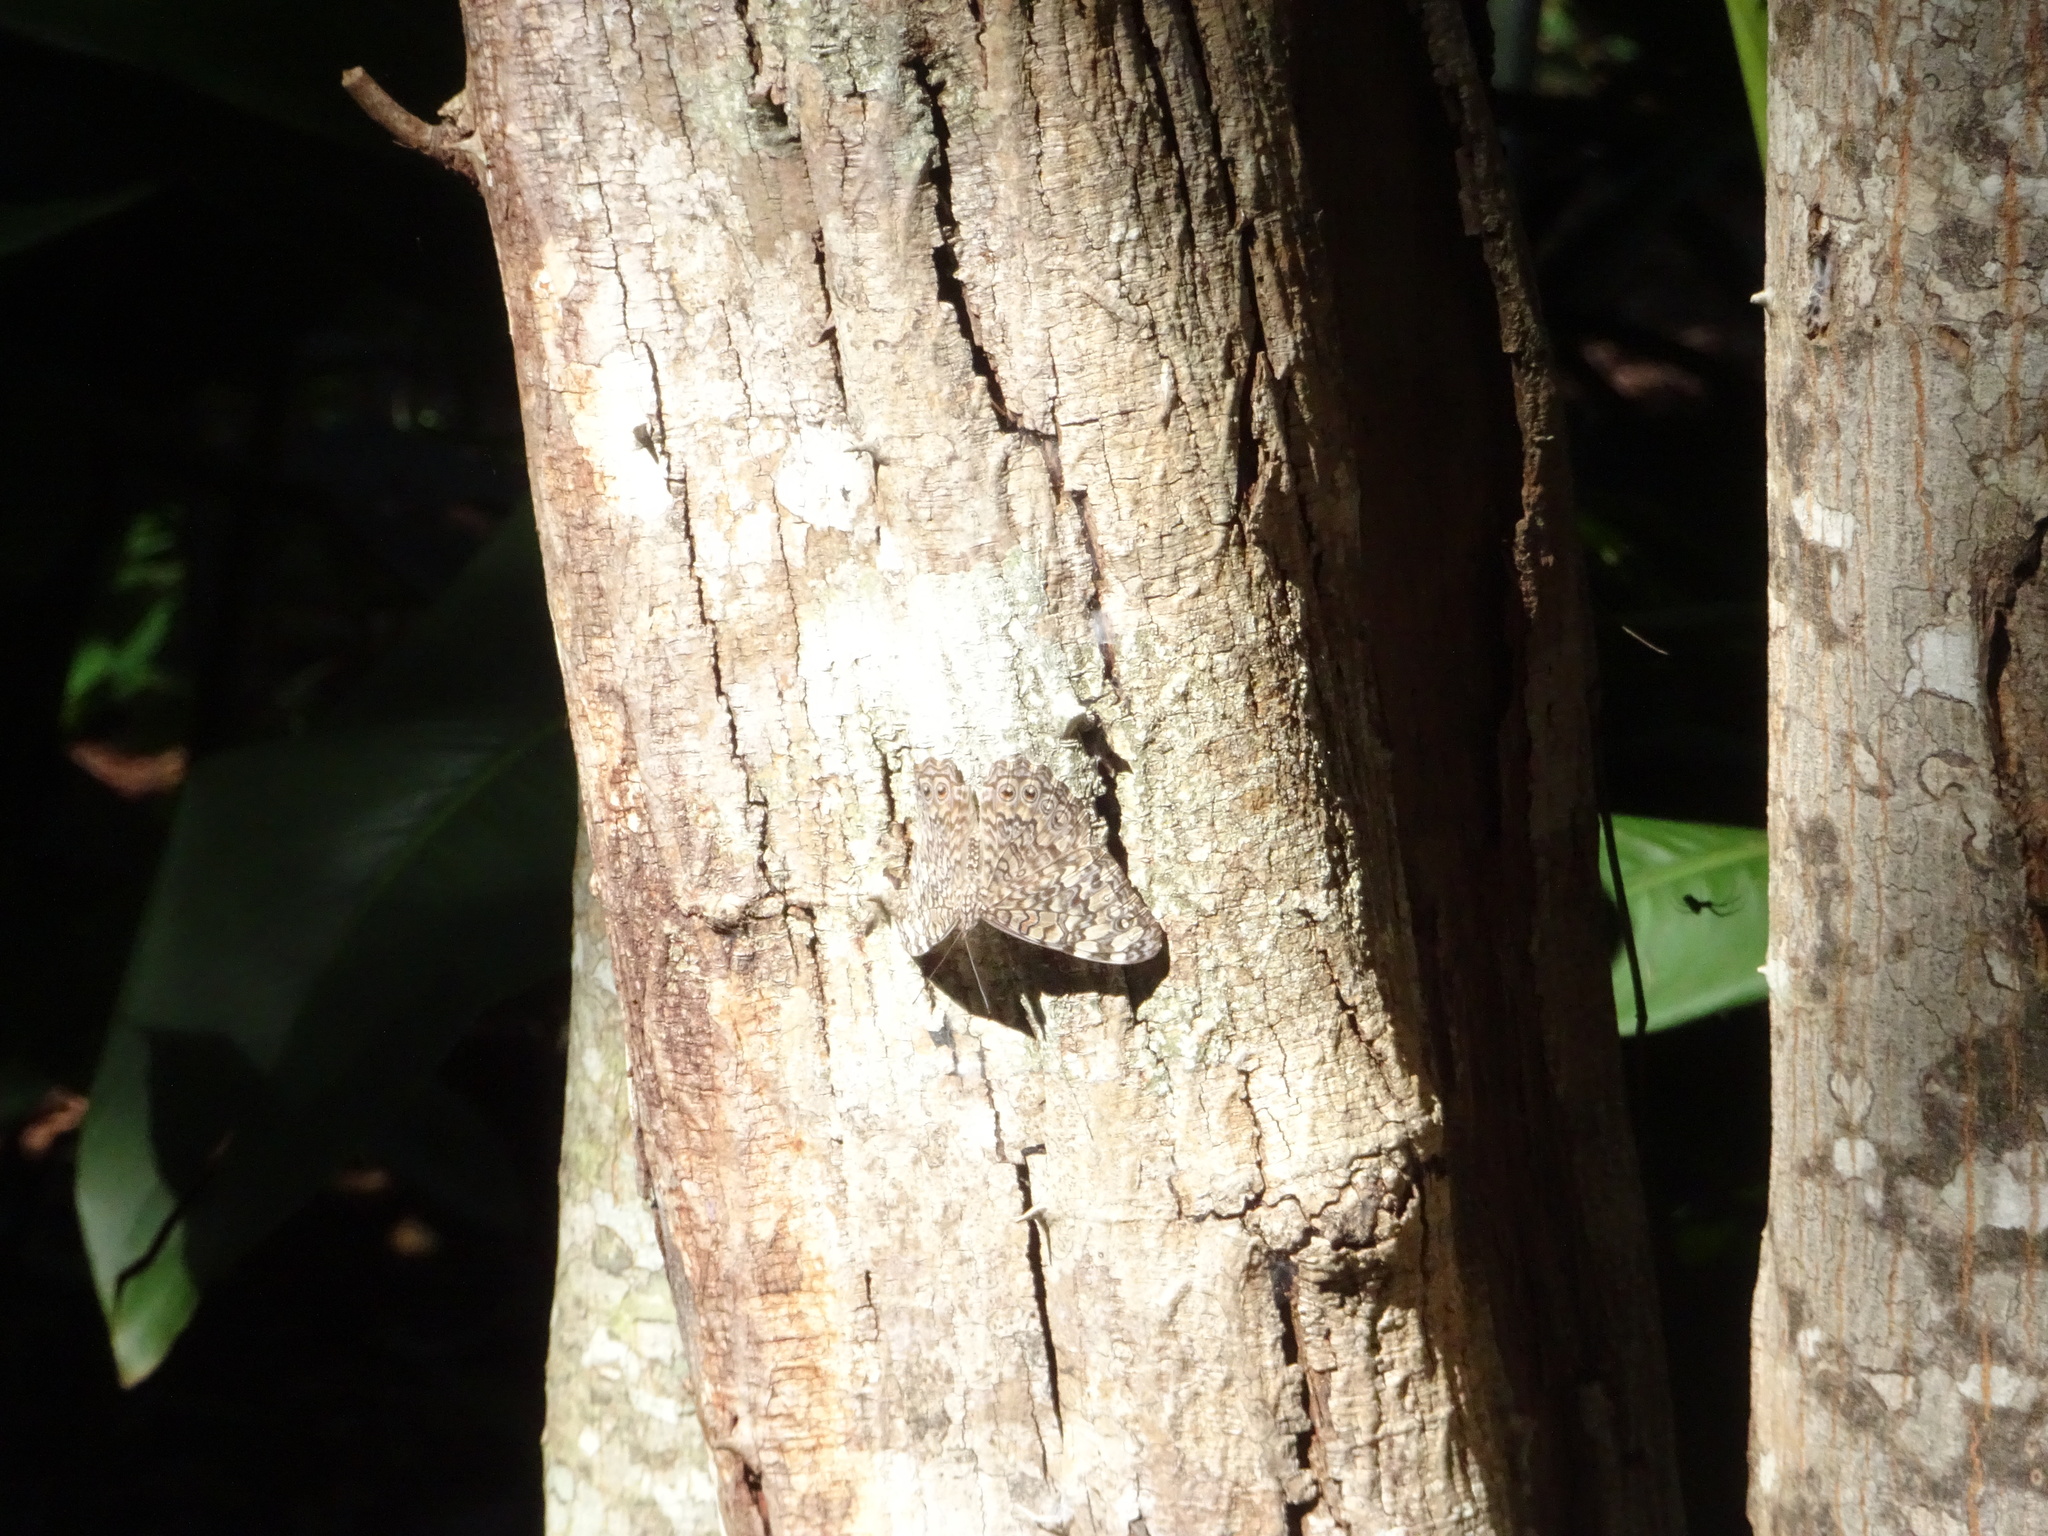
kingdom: Animalia
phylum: Arthropoda
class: Insecta
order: Lepidoptera
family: Nymphalidae
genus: Hamadryas
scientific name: Hamadryas februa
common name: Gray cracker
